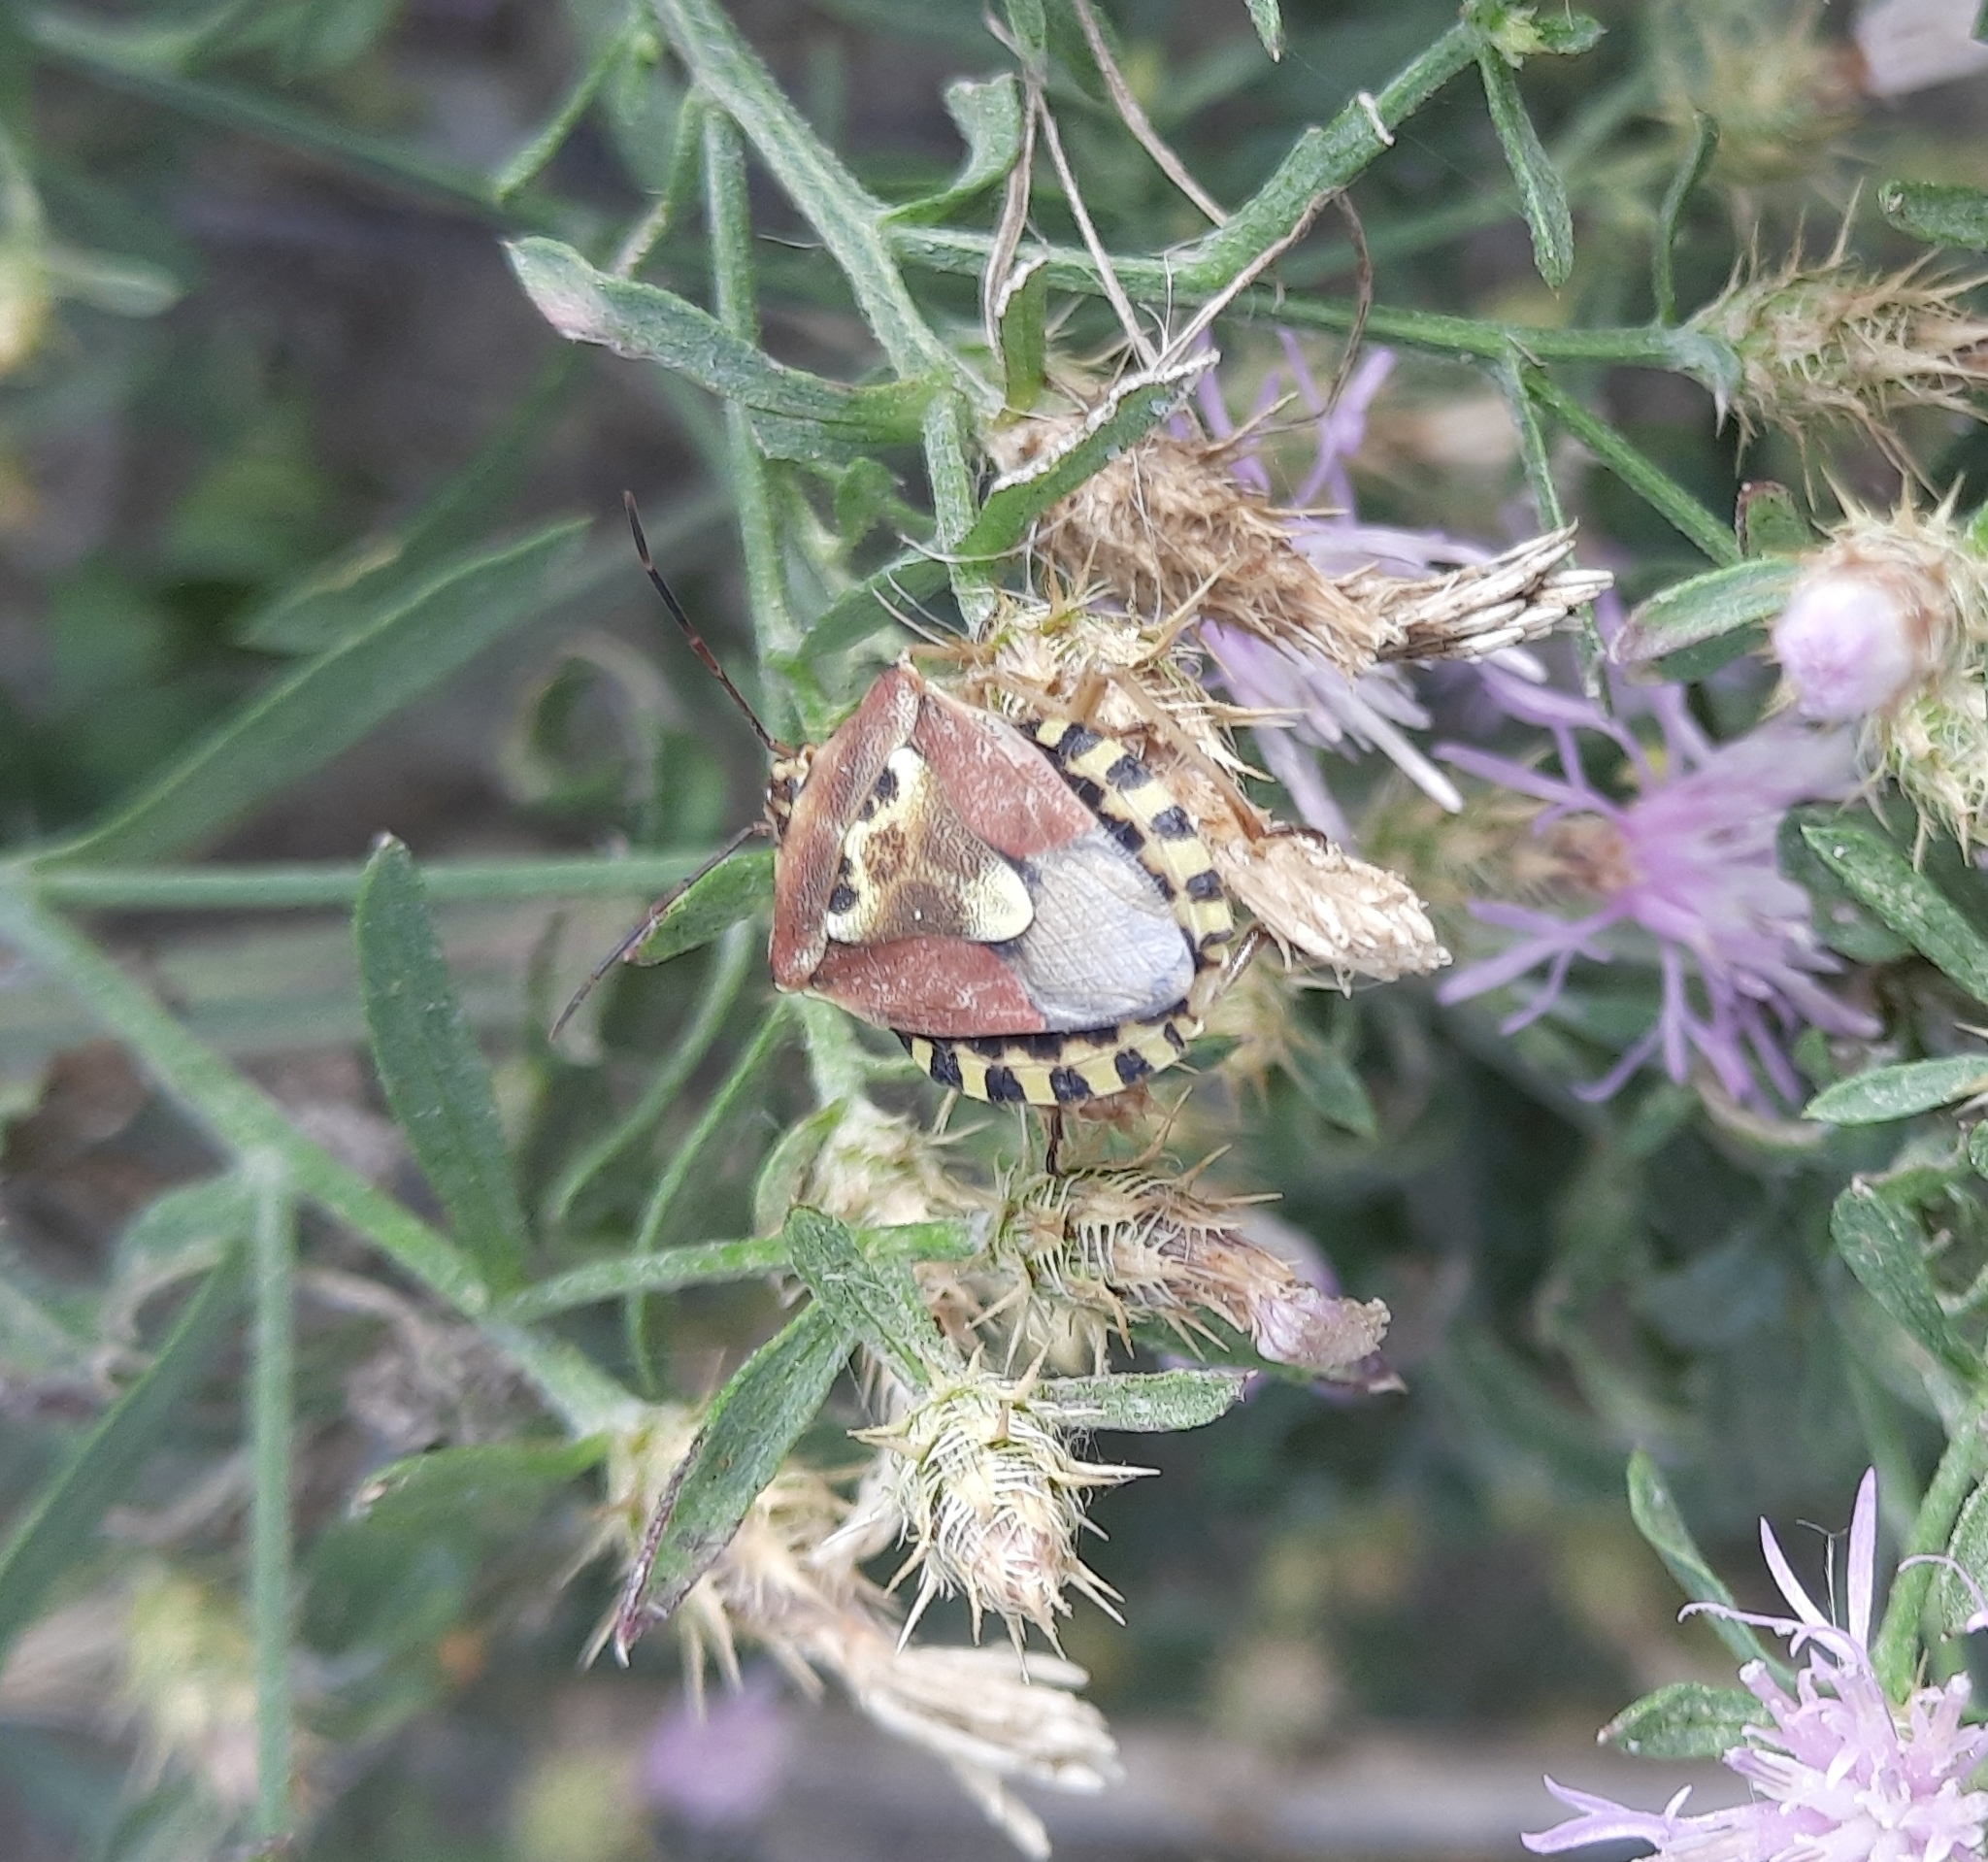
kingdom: Animalia
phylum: Arthropoda
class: Insecta
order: Hemiptera
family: Miridae
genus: Orthops
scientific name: Orthops kalmii
